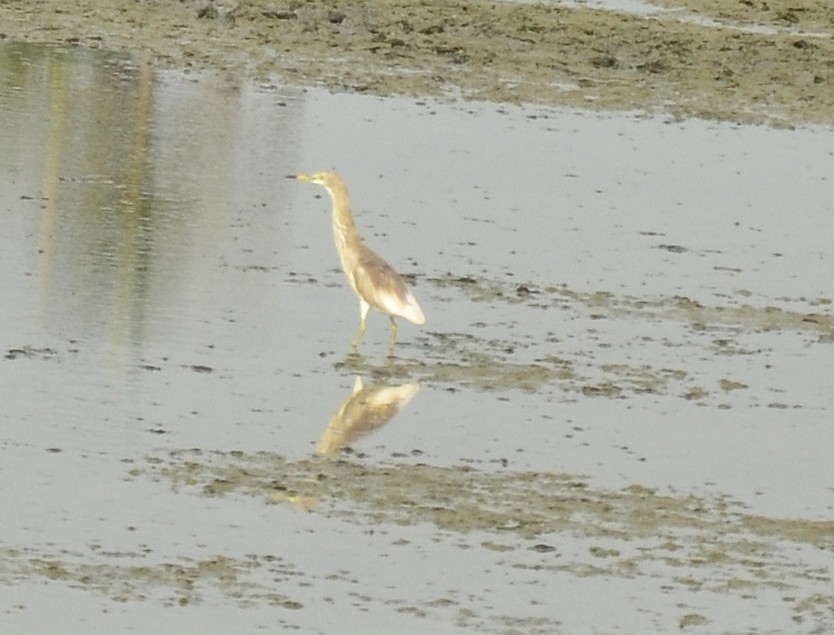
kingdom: Animalia
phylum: Chordata
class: Aves
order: Pelecaniformes
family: Ardeidae
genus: Ardeola
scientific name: Ardeola grayii
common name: Indian pond heron
